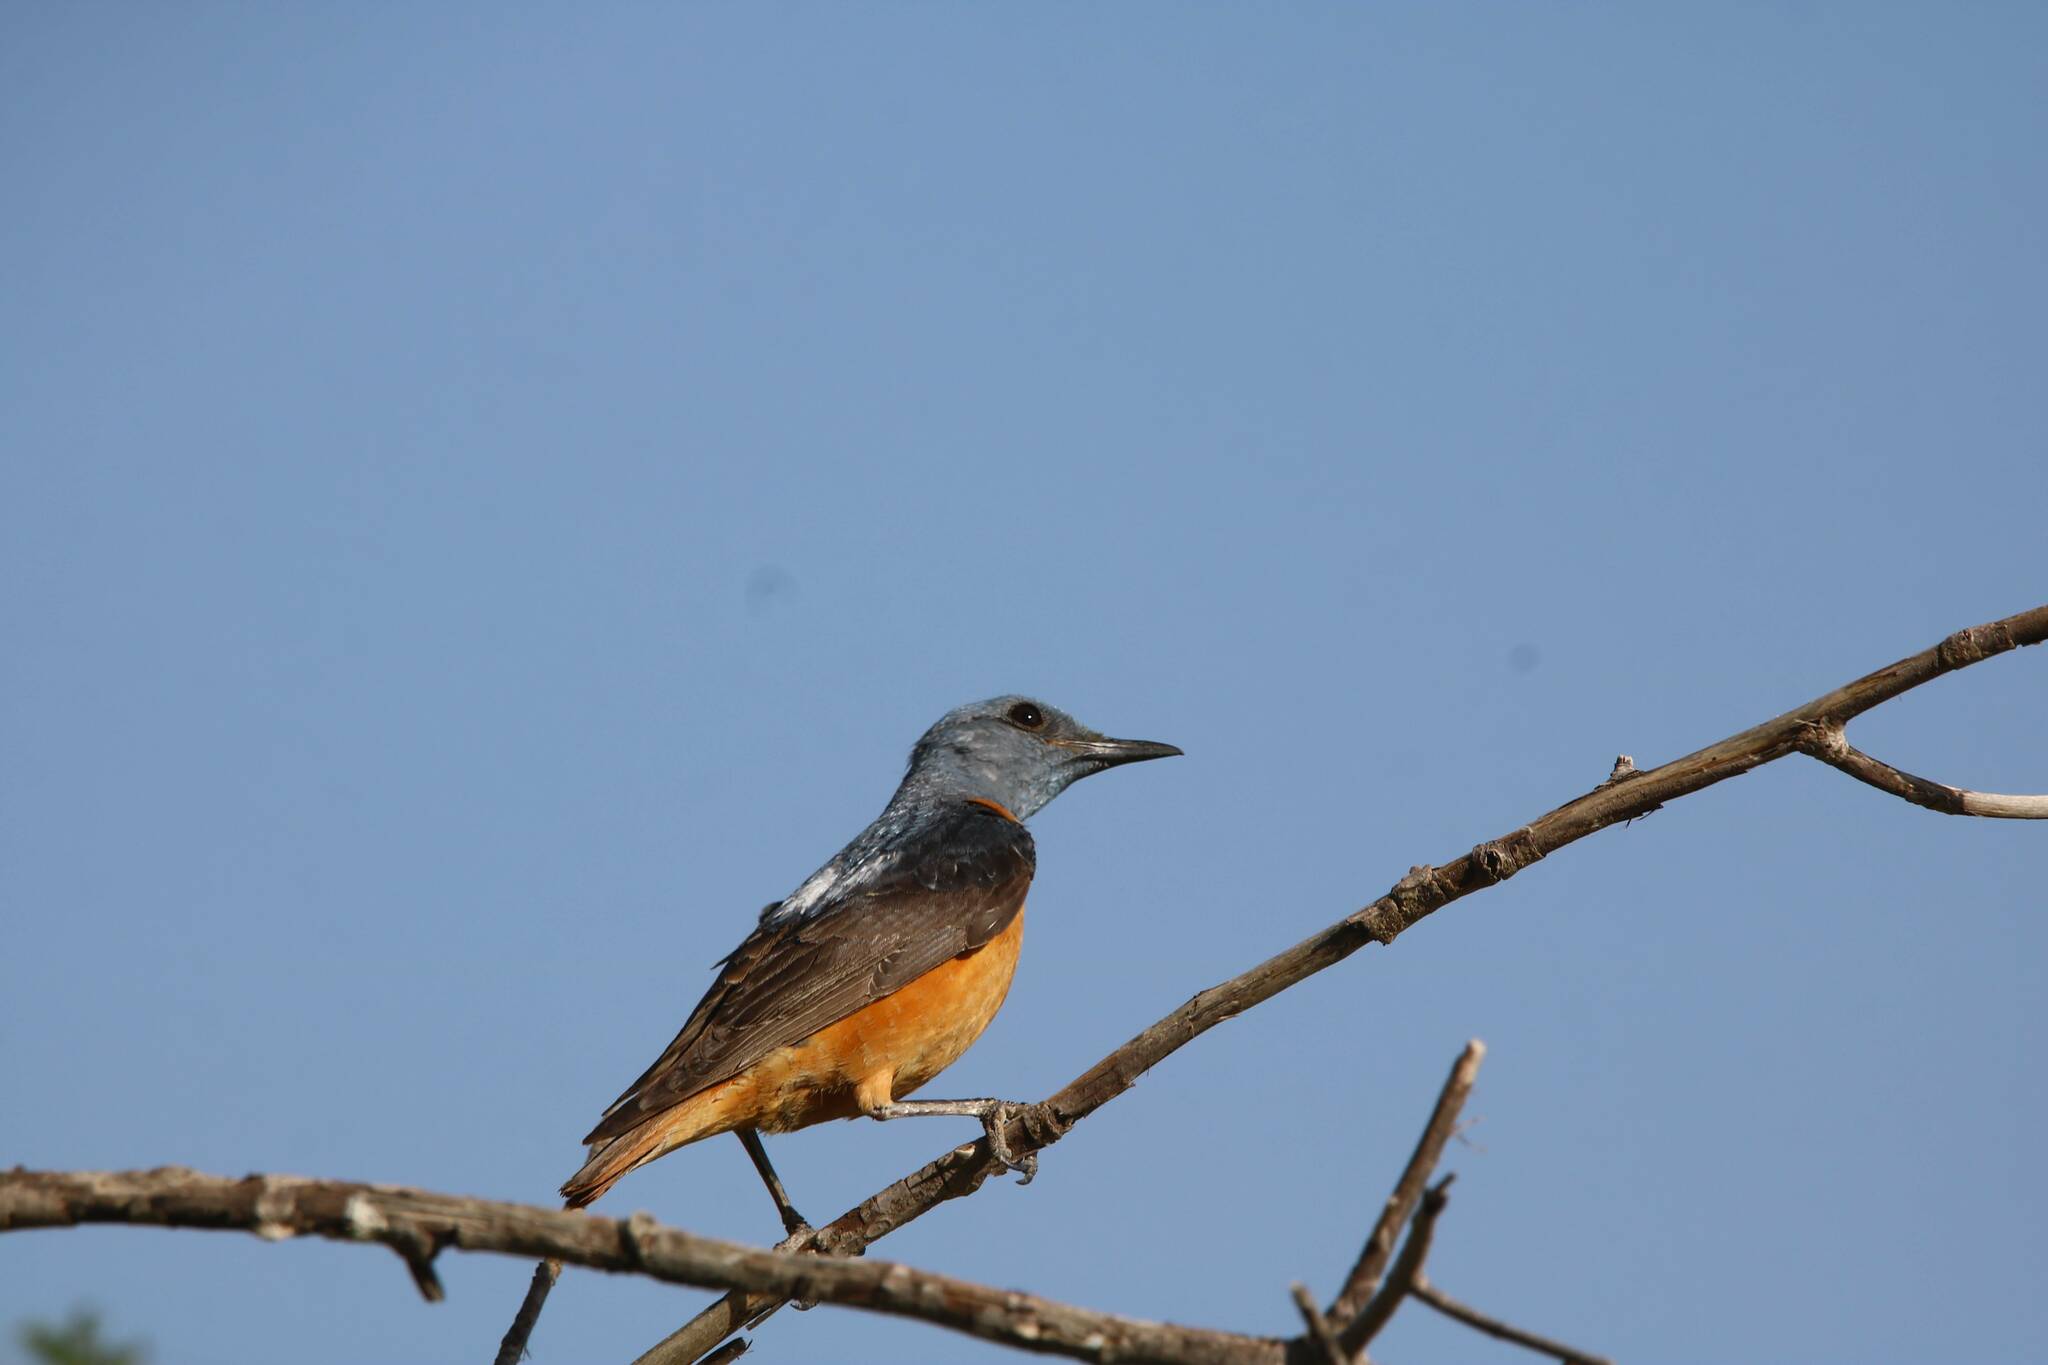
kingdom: Animalia
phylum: Chordata
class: Aves
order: Passeriformes
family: Muscicapidae
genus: Monticola
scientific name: Monticola saxatilis
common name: Rufous-tailed rock thrush
